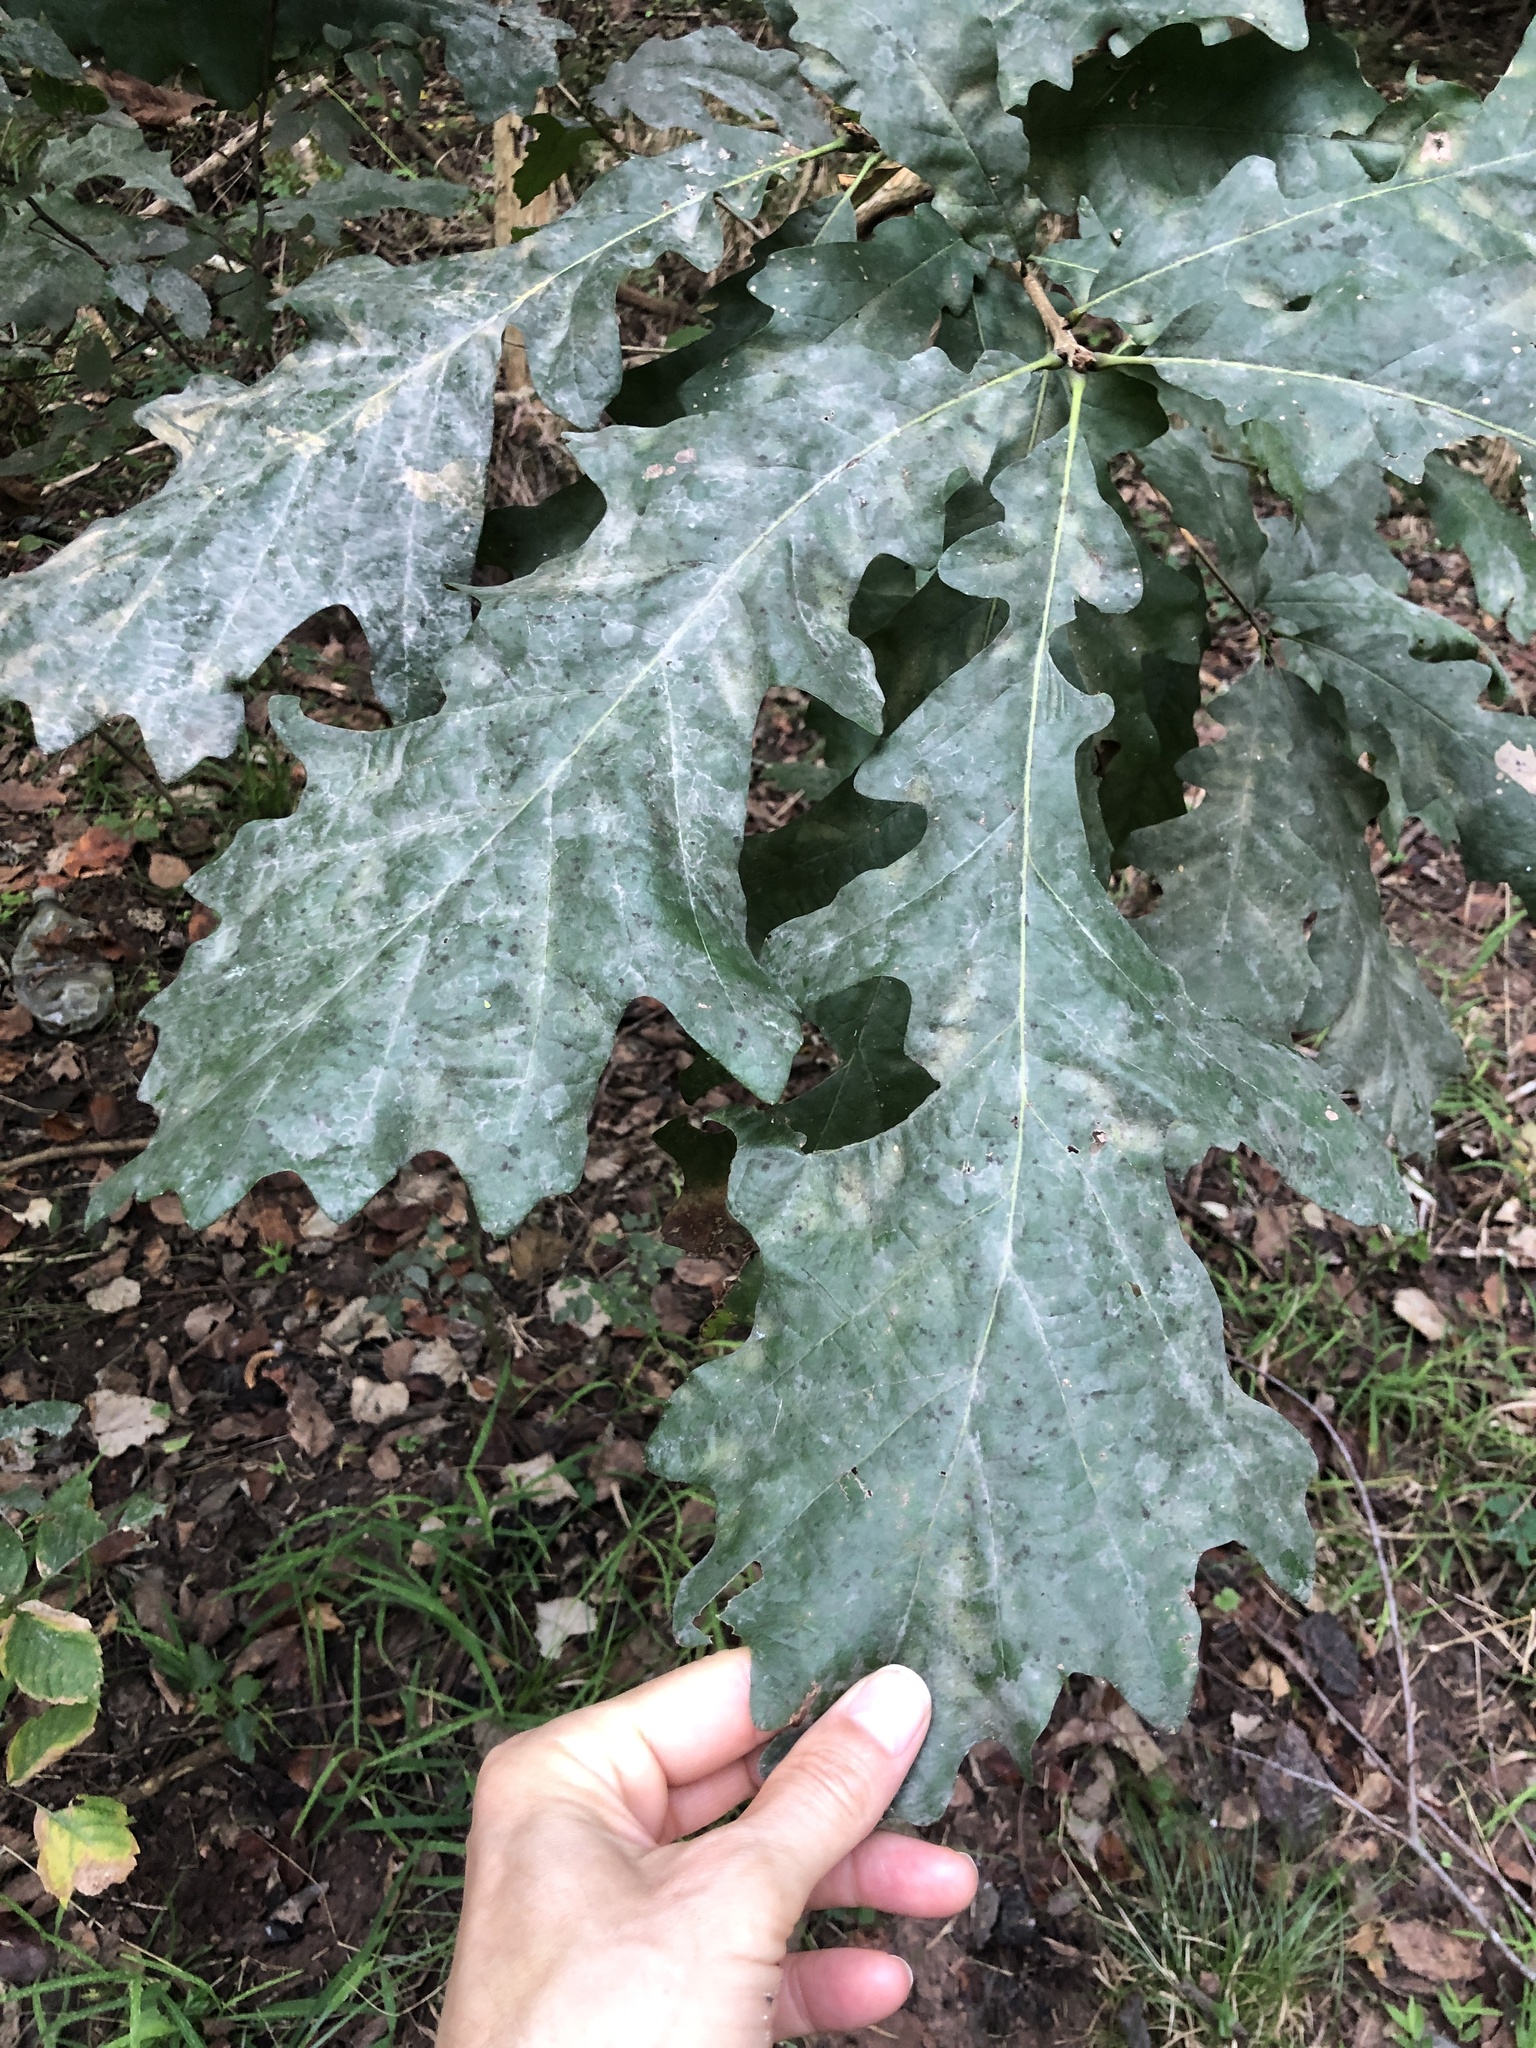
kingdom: Plantae
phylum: Tracheophyta
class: Magnoliopsida
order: Fagales
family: Fagaceae
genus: Quercus
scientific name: Quercus macrocarpa
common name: Bur oak
